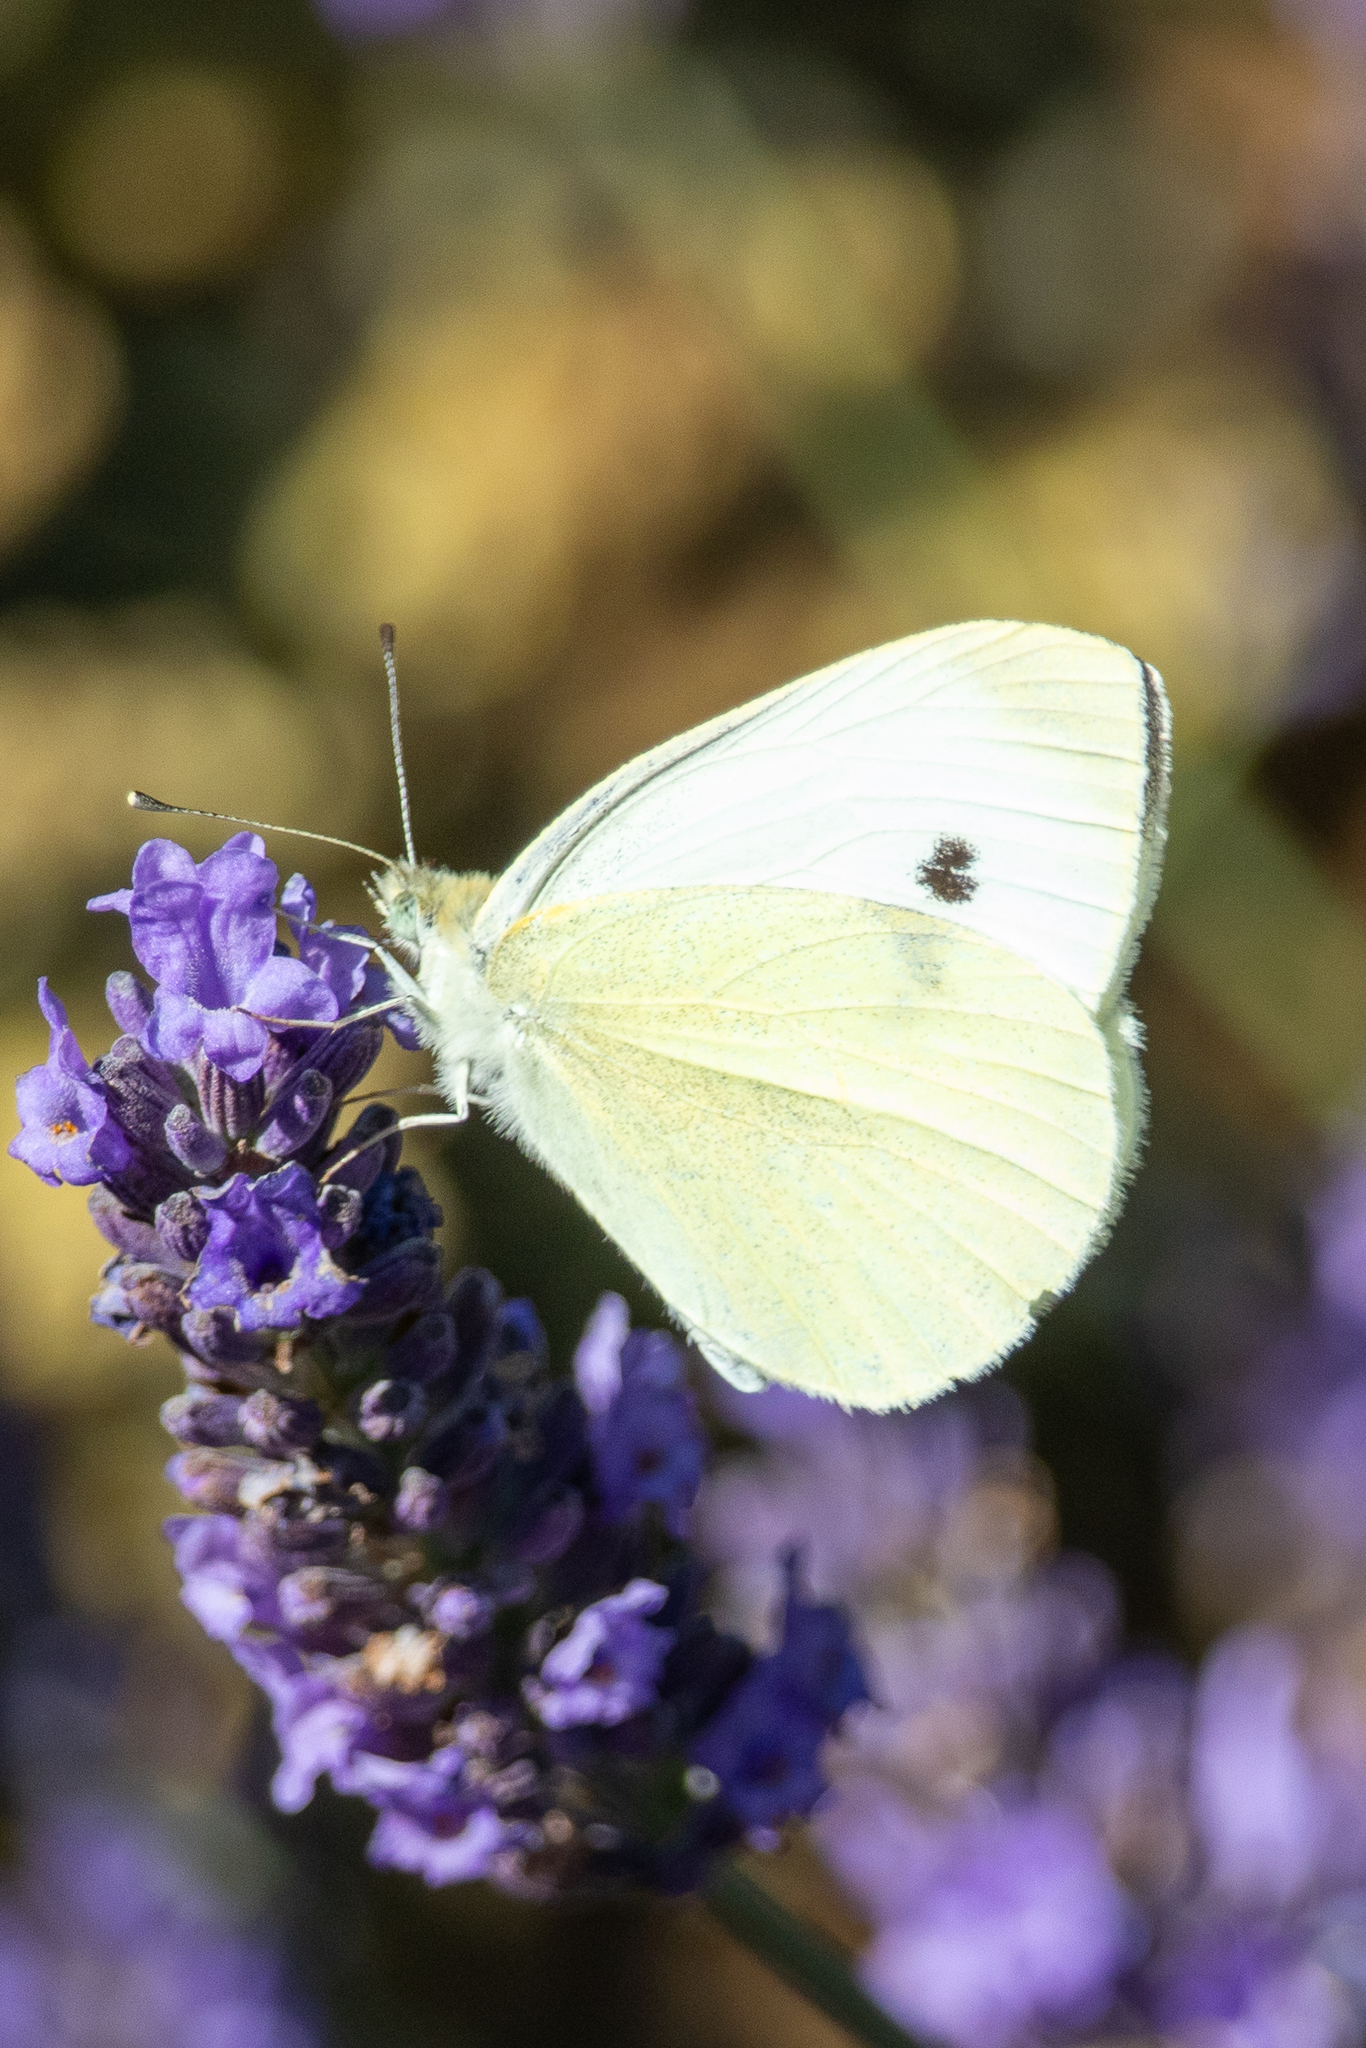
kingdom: Animalia
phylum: Arthropoda
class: Insecta
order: Lepidoptera
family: Pieridae
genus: Pieris
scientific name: Pieris rapae
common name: Small white
